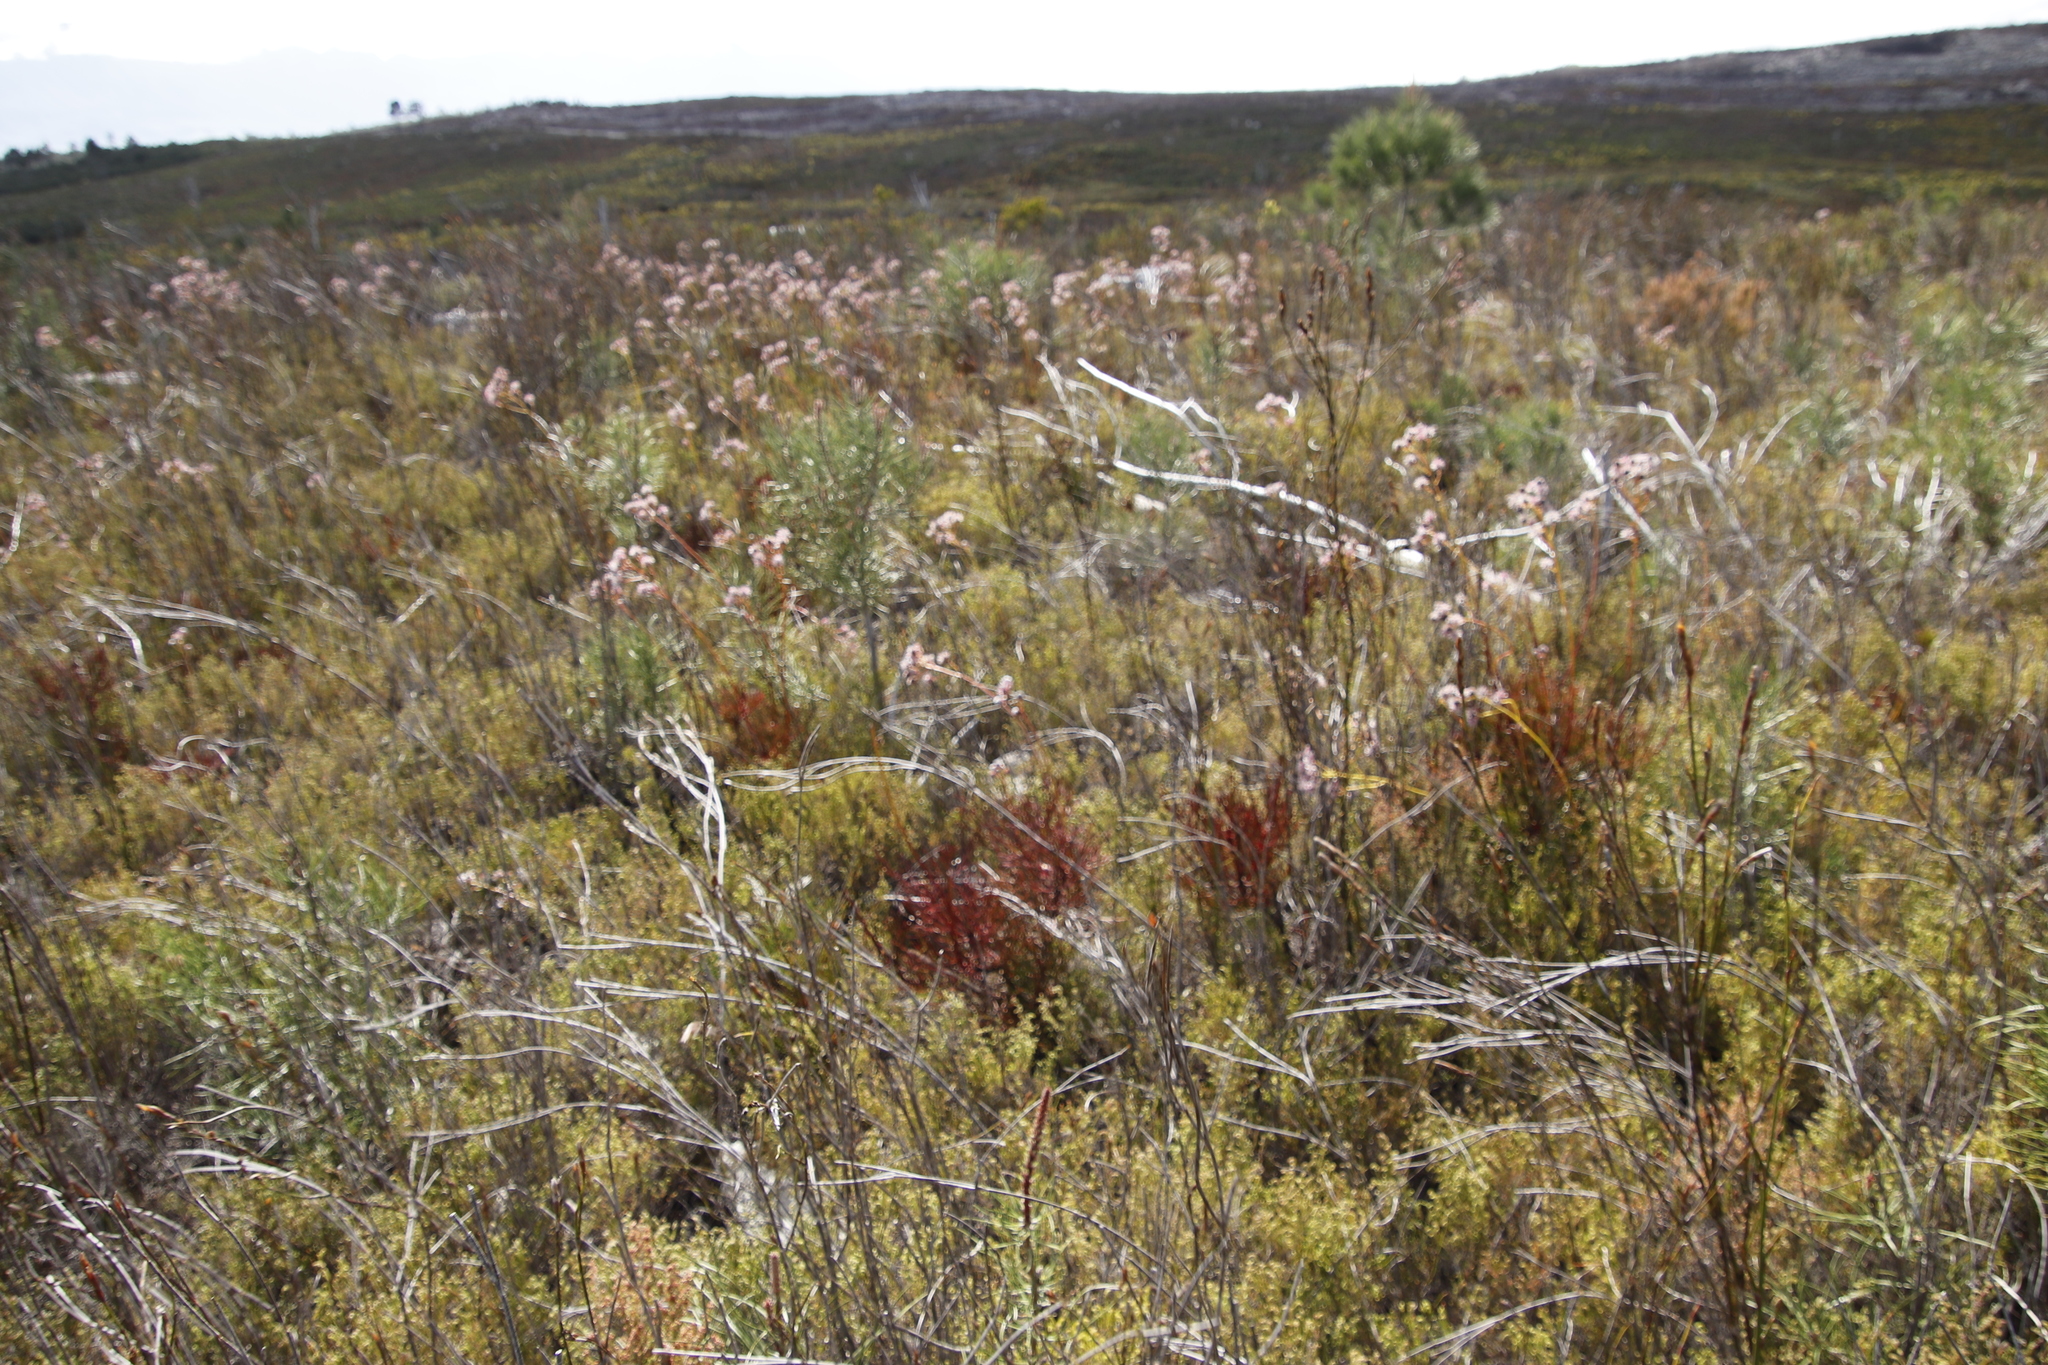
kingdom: Plantae
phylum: Tracheophyta
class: Magnoliopsida
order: Proteales
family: Proteaceae
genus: Serruria
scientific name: Serruria elongata
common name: Long-stalk spiderhead
